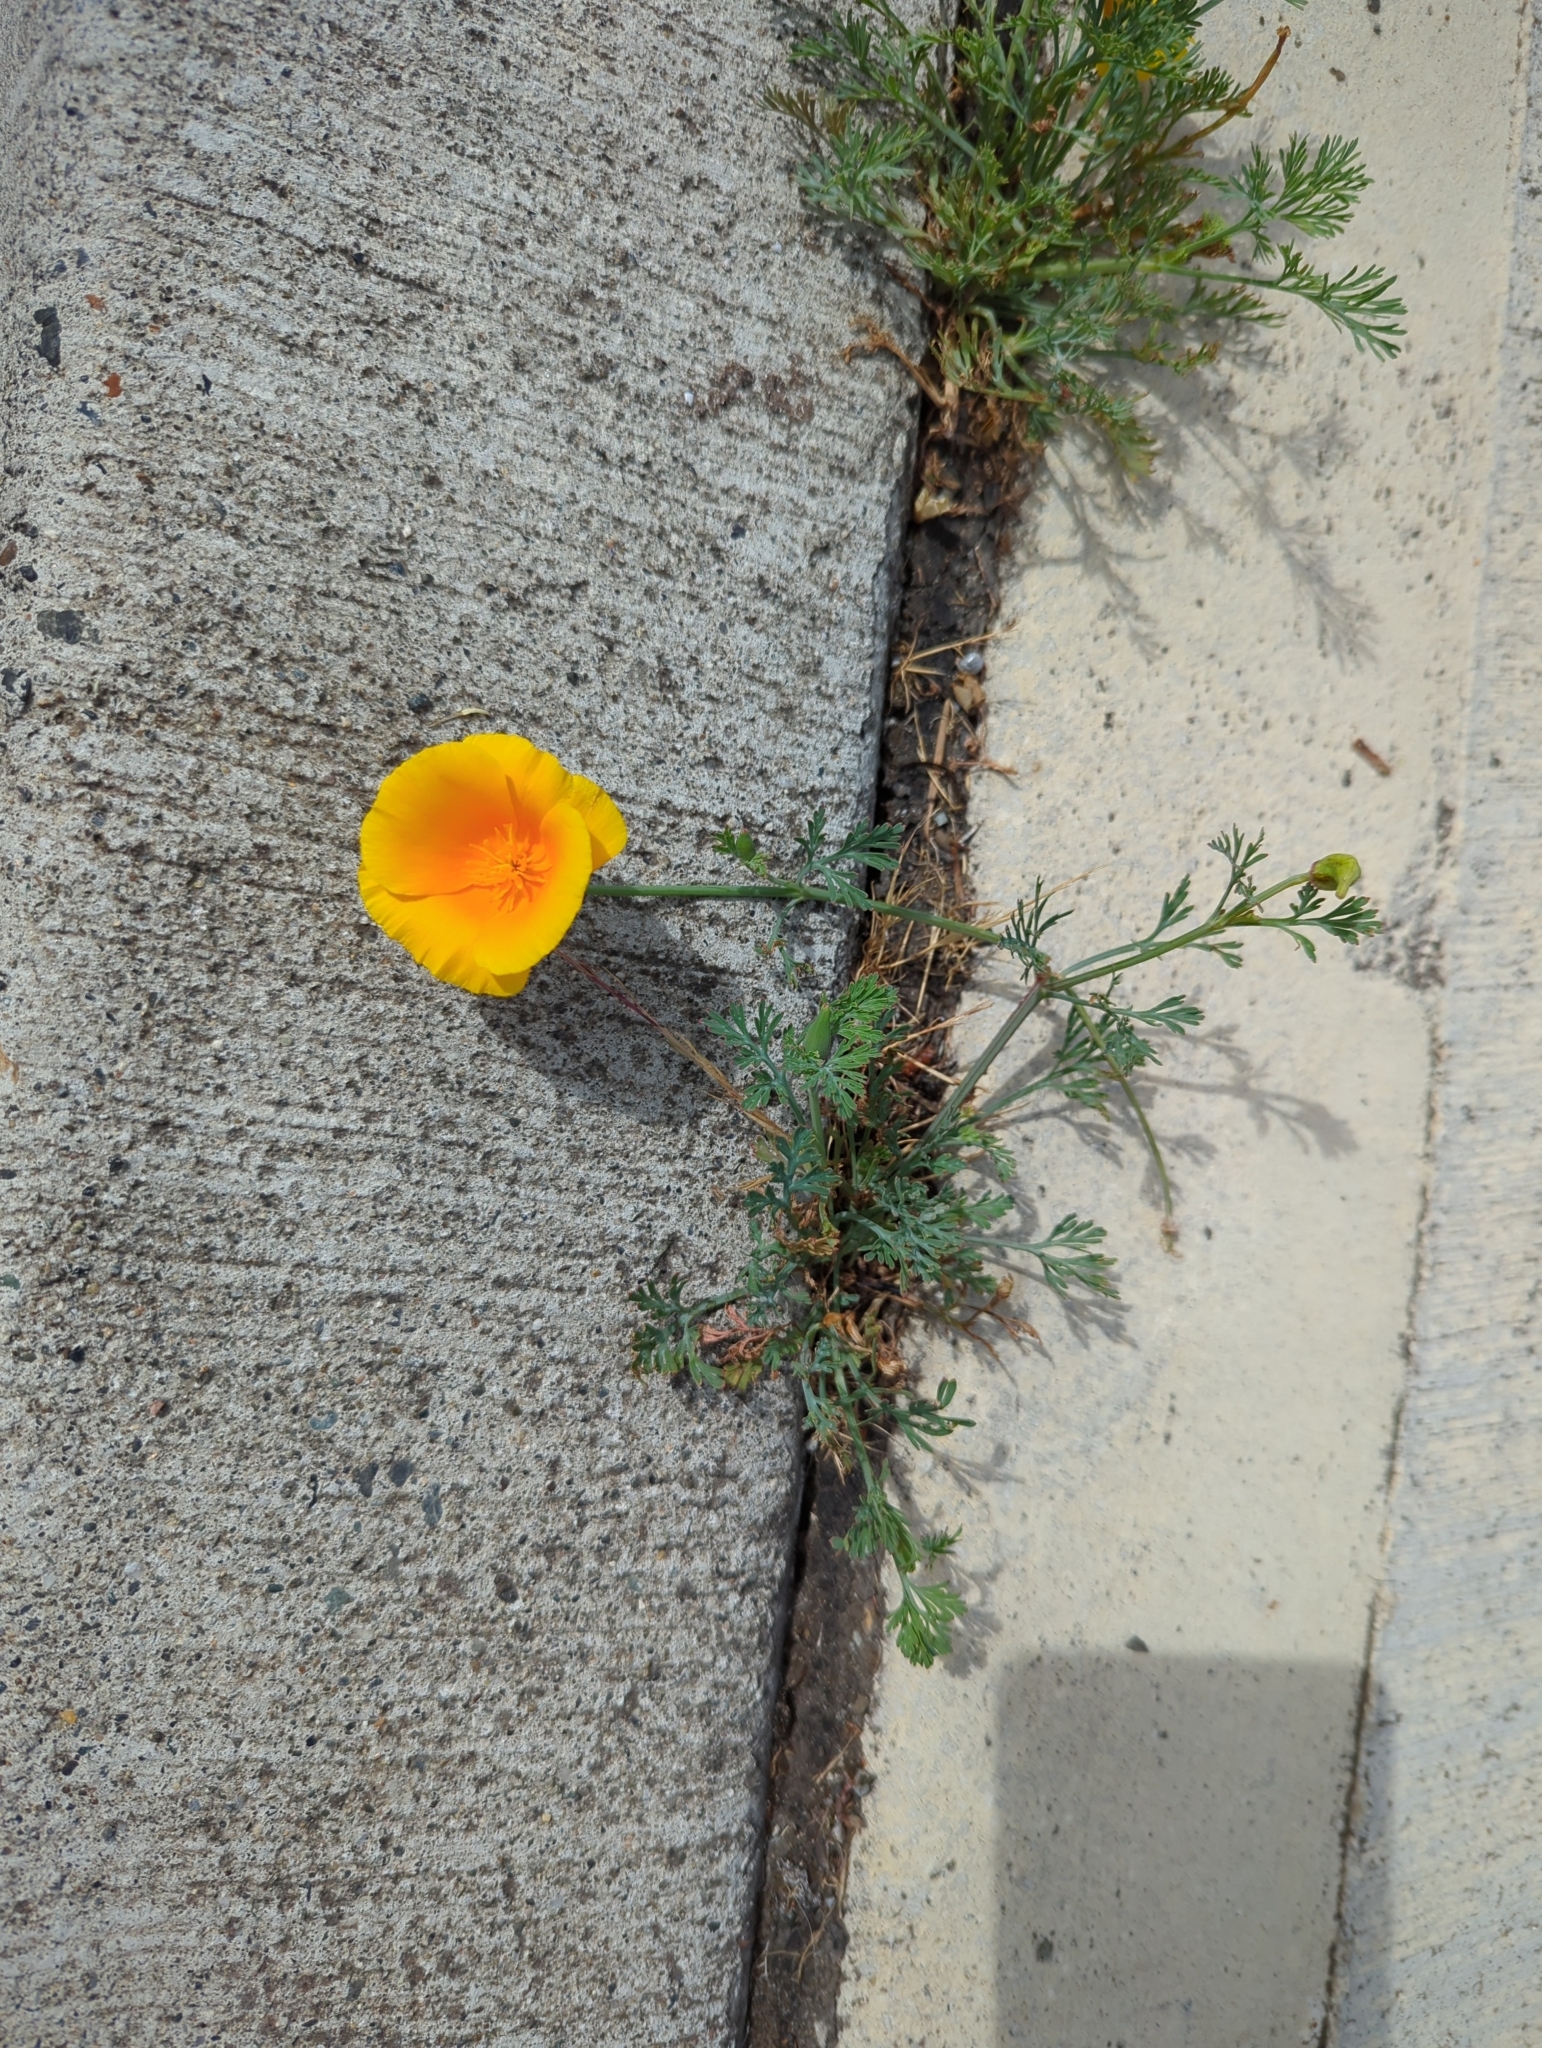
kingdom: Plantae
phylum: Tracheophyta
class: Magnoliopsida
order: Ranunculales
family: Papaveraceae
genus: Eschscholzia
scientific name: Eschscholzia californica
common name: California poppy
